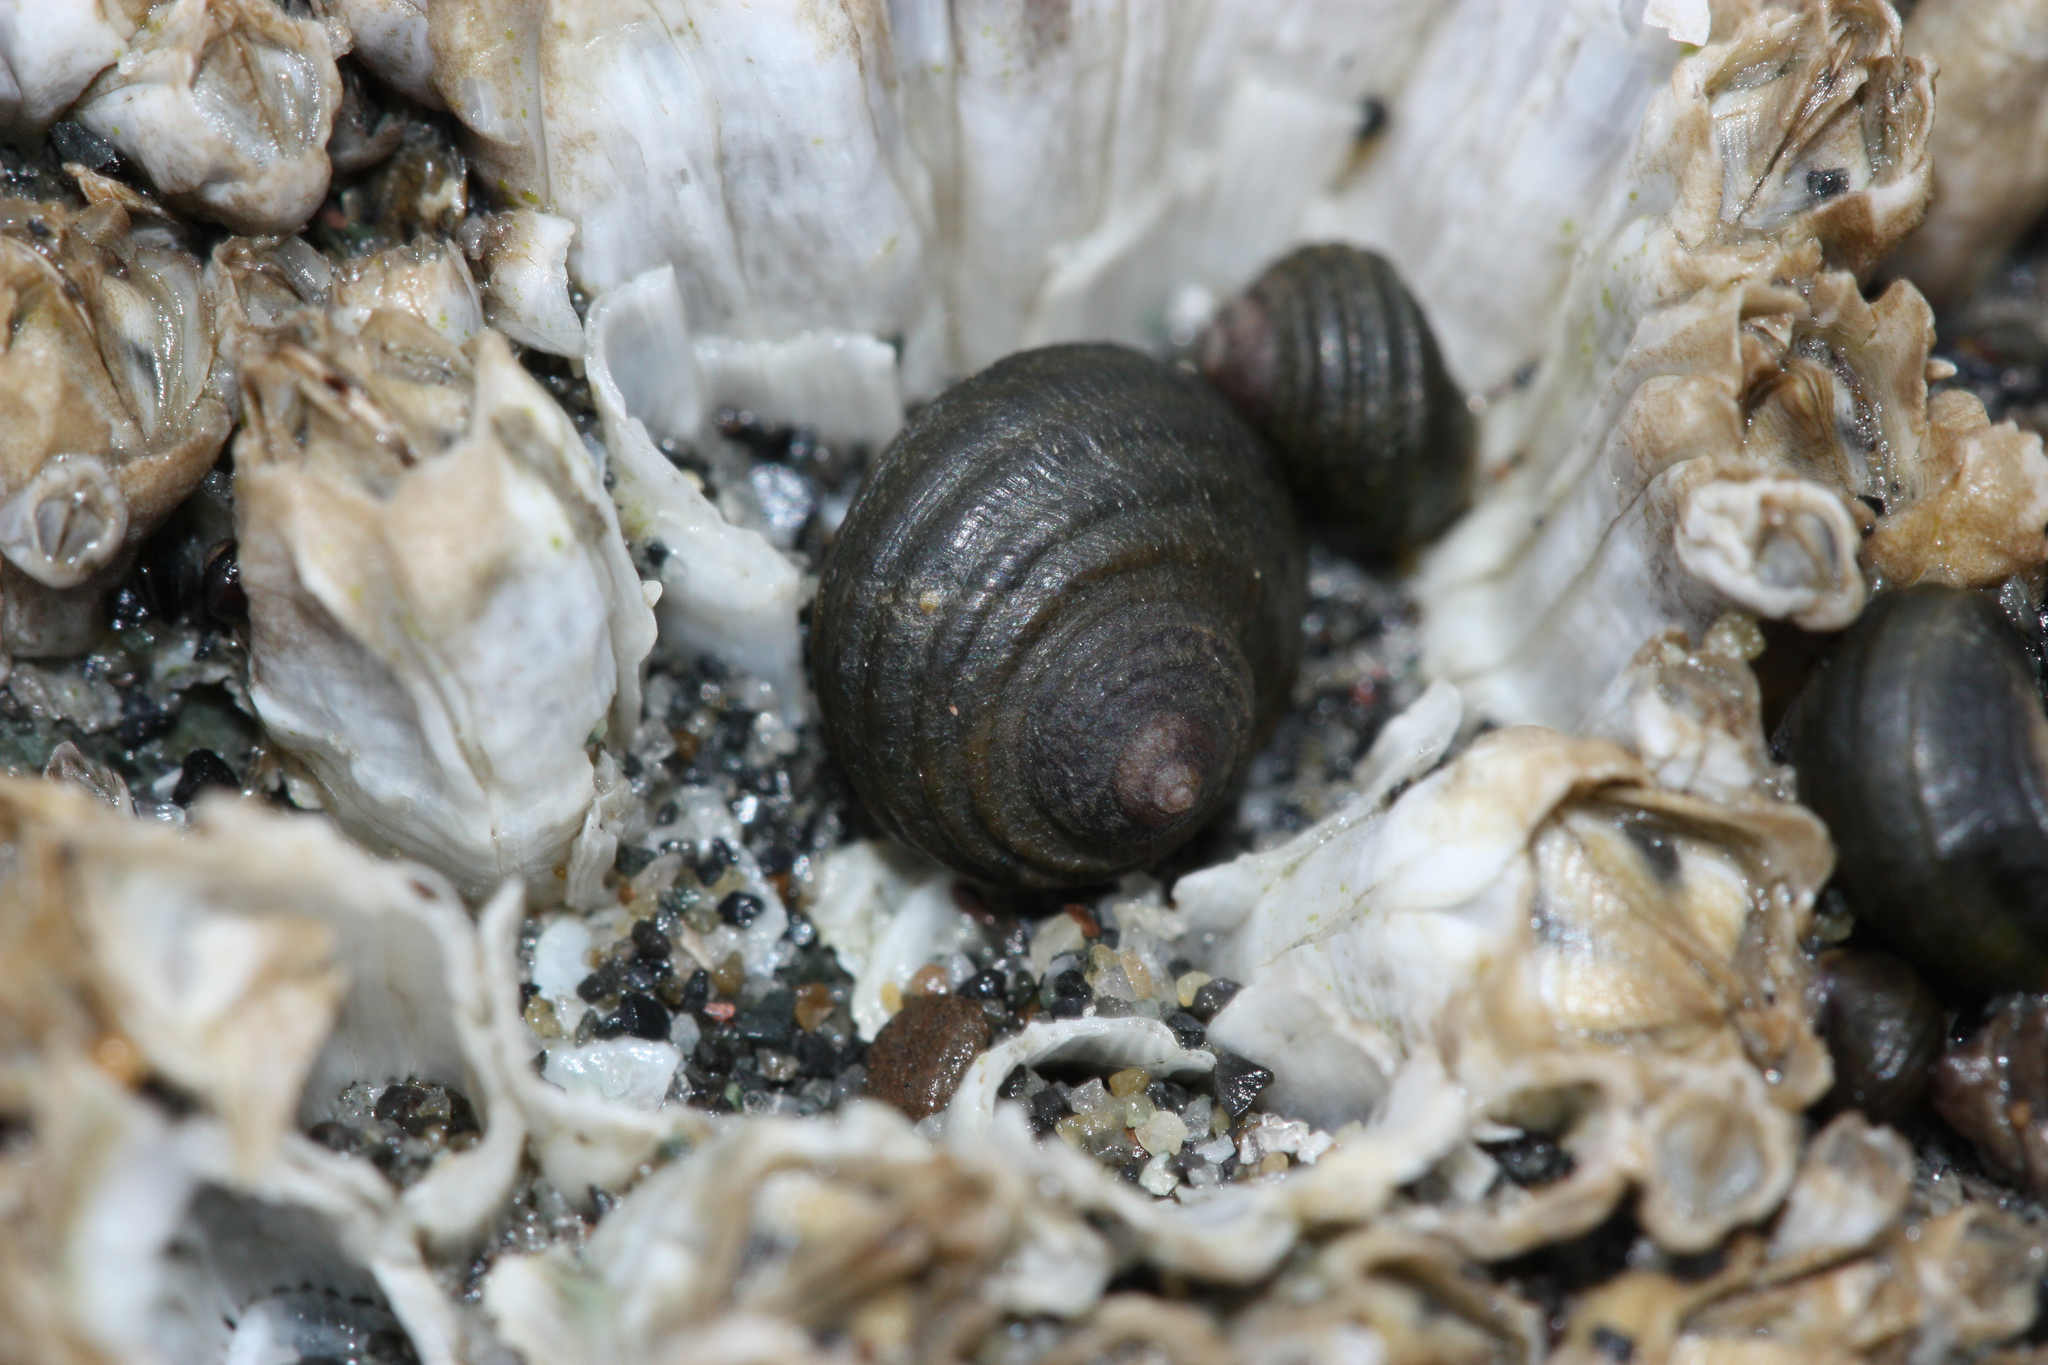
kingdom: Animalia
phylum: Mollusca
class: Gastropoda
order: Littorinimorpha
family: Littorinidae
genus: Littorina
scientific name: Littorina sitkana
